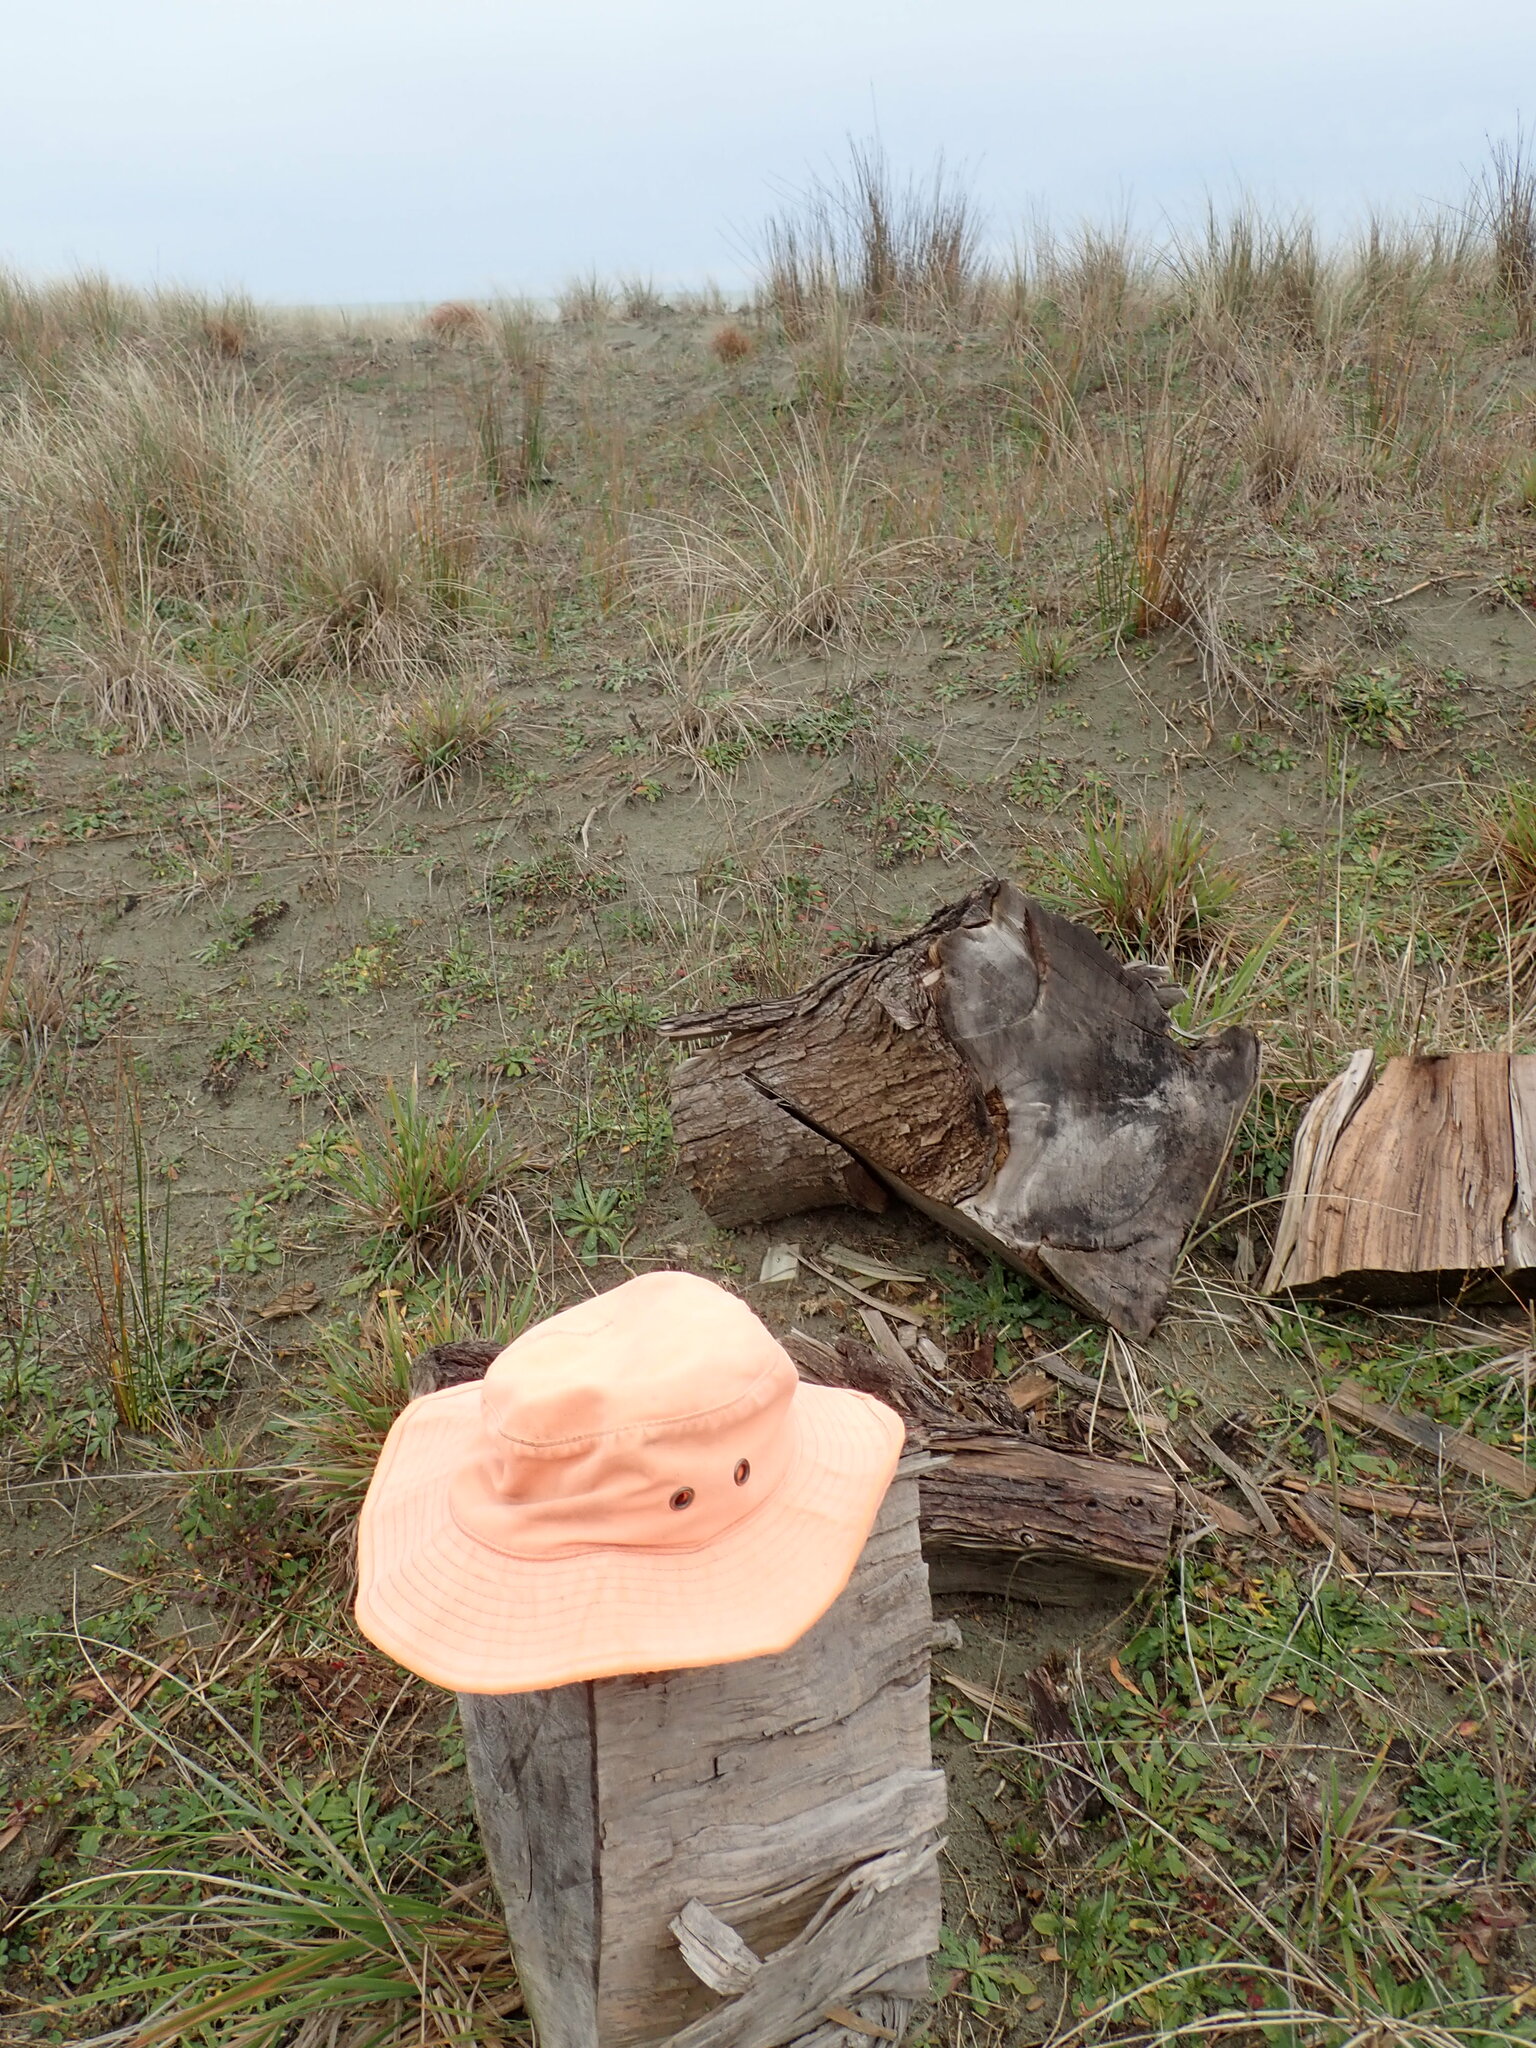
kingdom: Animalia
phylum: Arthropoda
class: Insecta
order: Dermaptera
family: Forficulidae
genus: Forficula
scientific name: Forficula dentata
